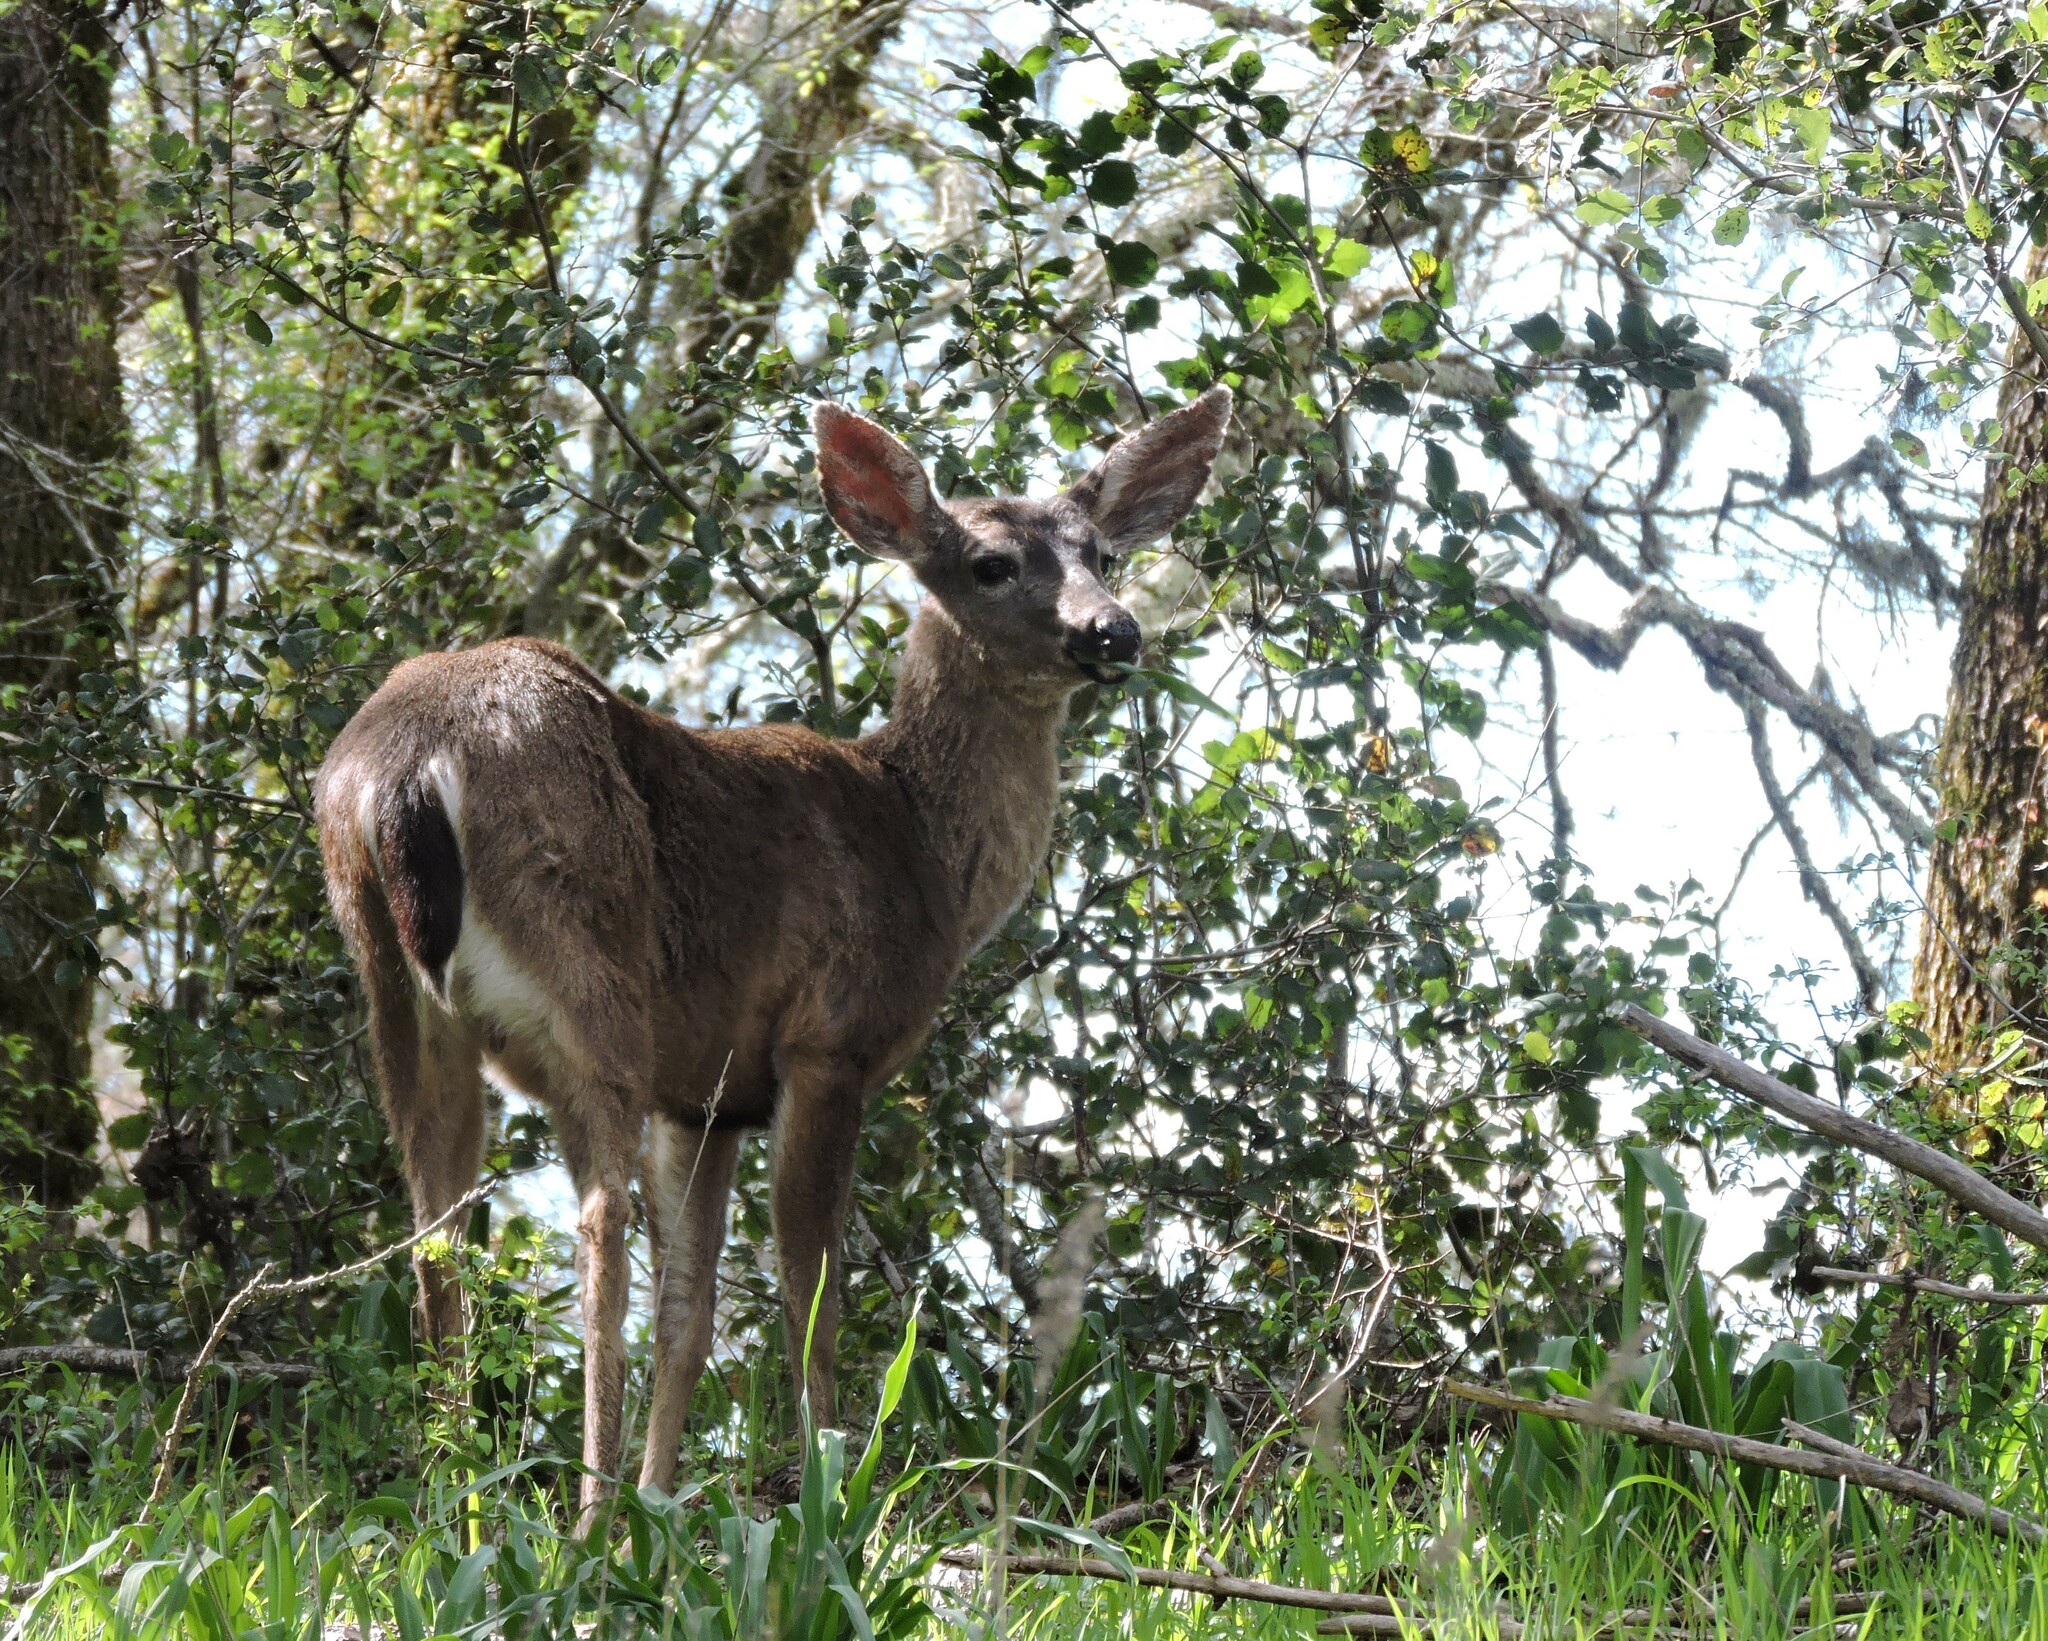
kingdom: Animalia
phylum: Chordata
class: Mammalia
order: Artiodactyla
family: Cervidae
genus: Odocoileus
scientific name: Odocoileus hemionus
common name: Mule deer
